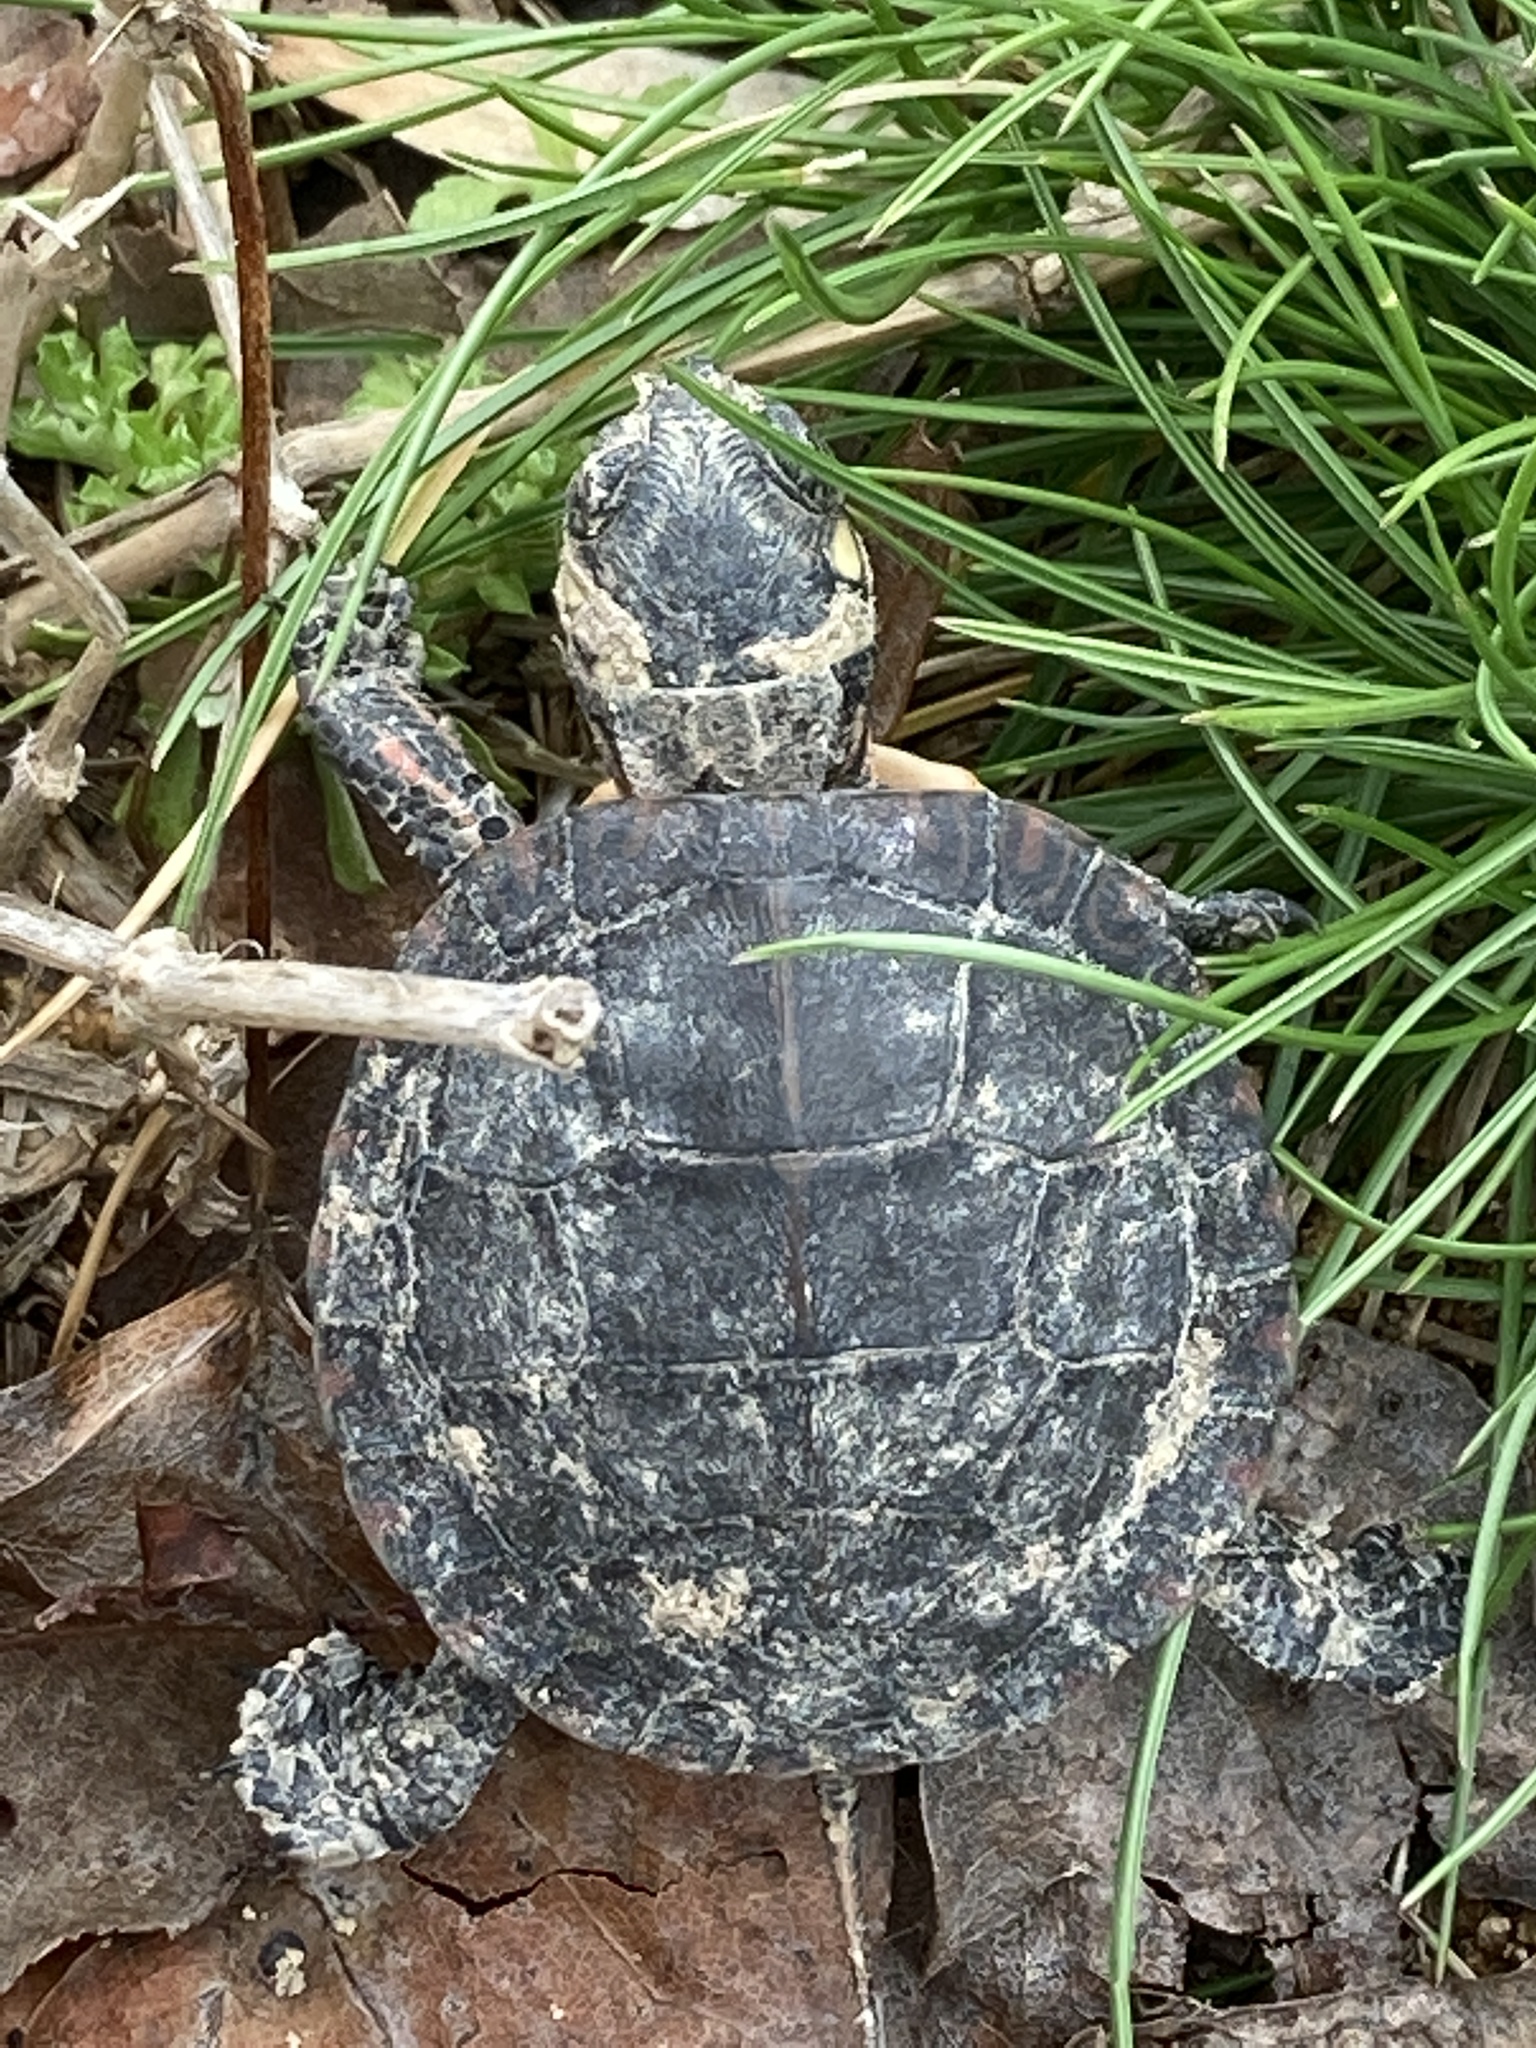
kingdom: Animalia
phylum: Chordata
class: Testudines
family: Emydidae
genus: Chrysemys
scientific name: Chrysemys picta
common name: Painted turtle
